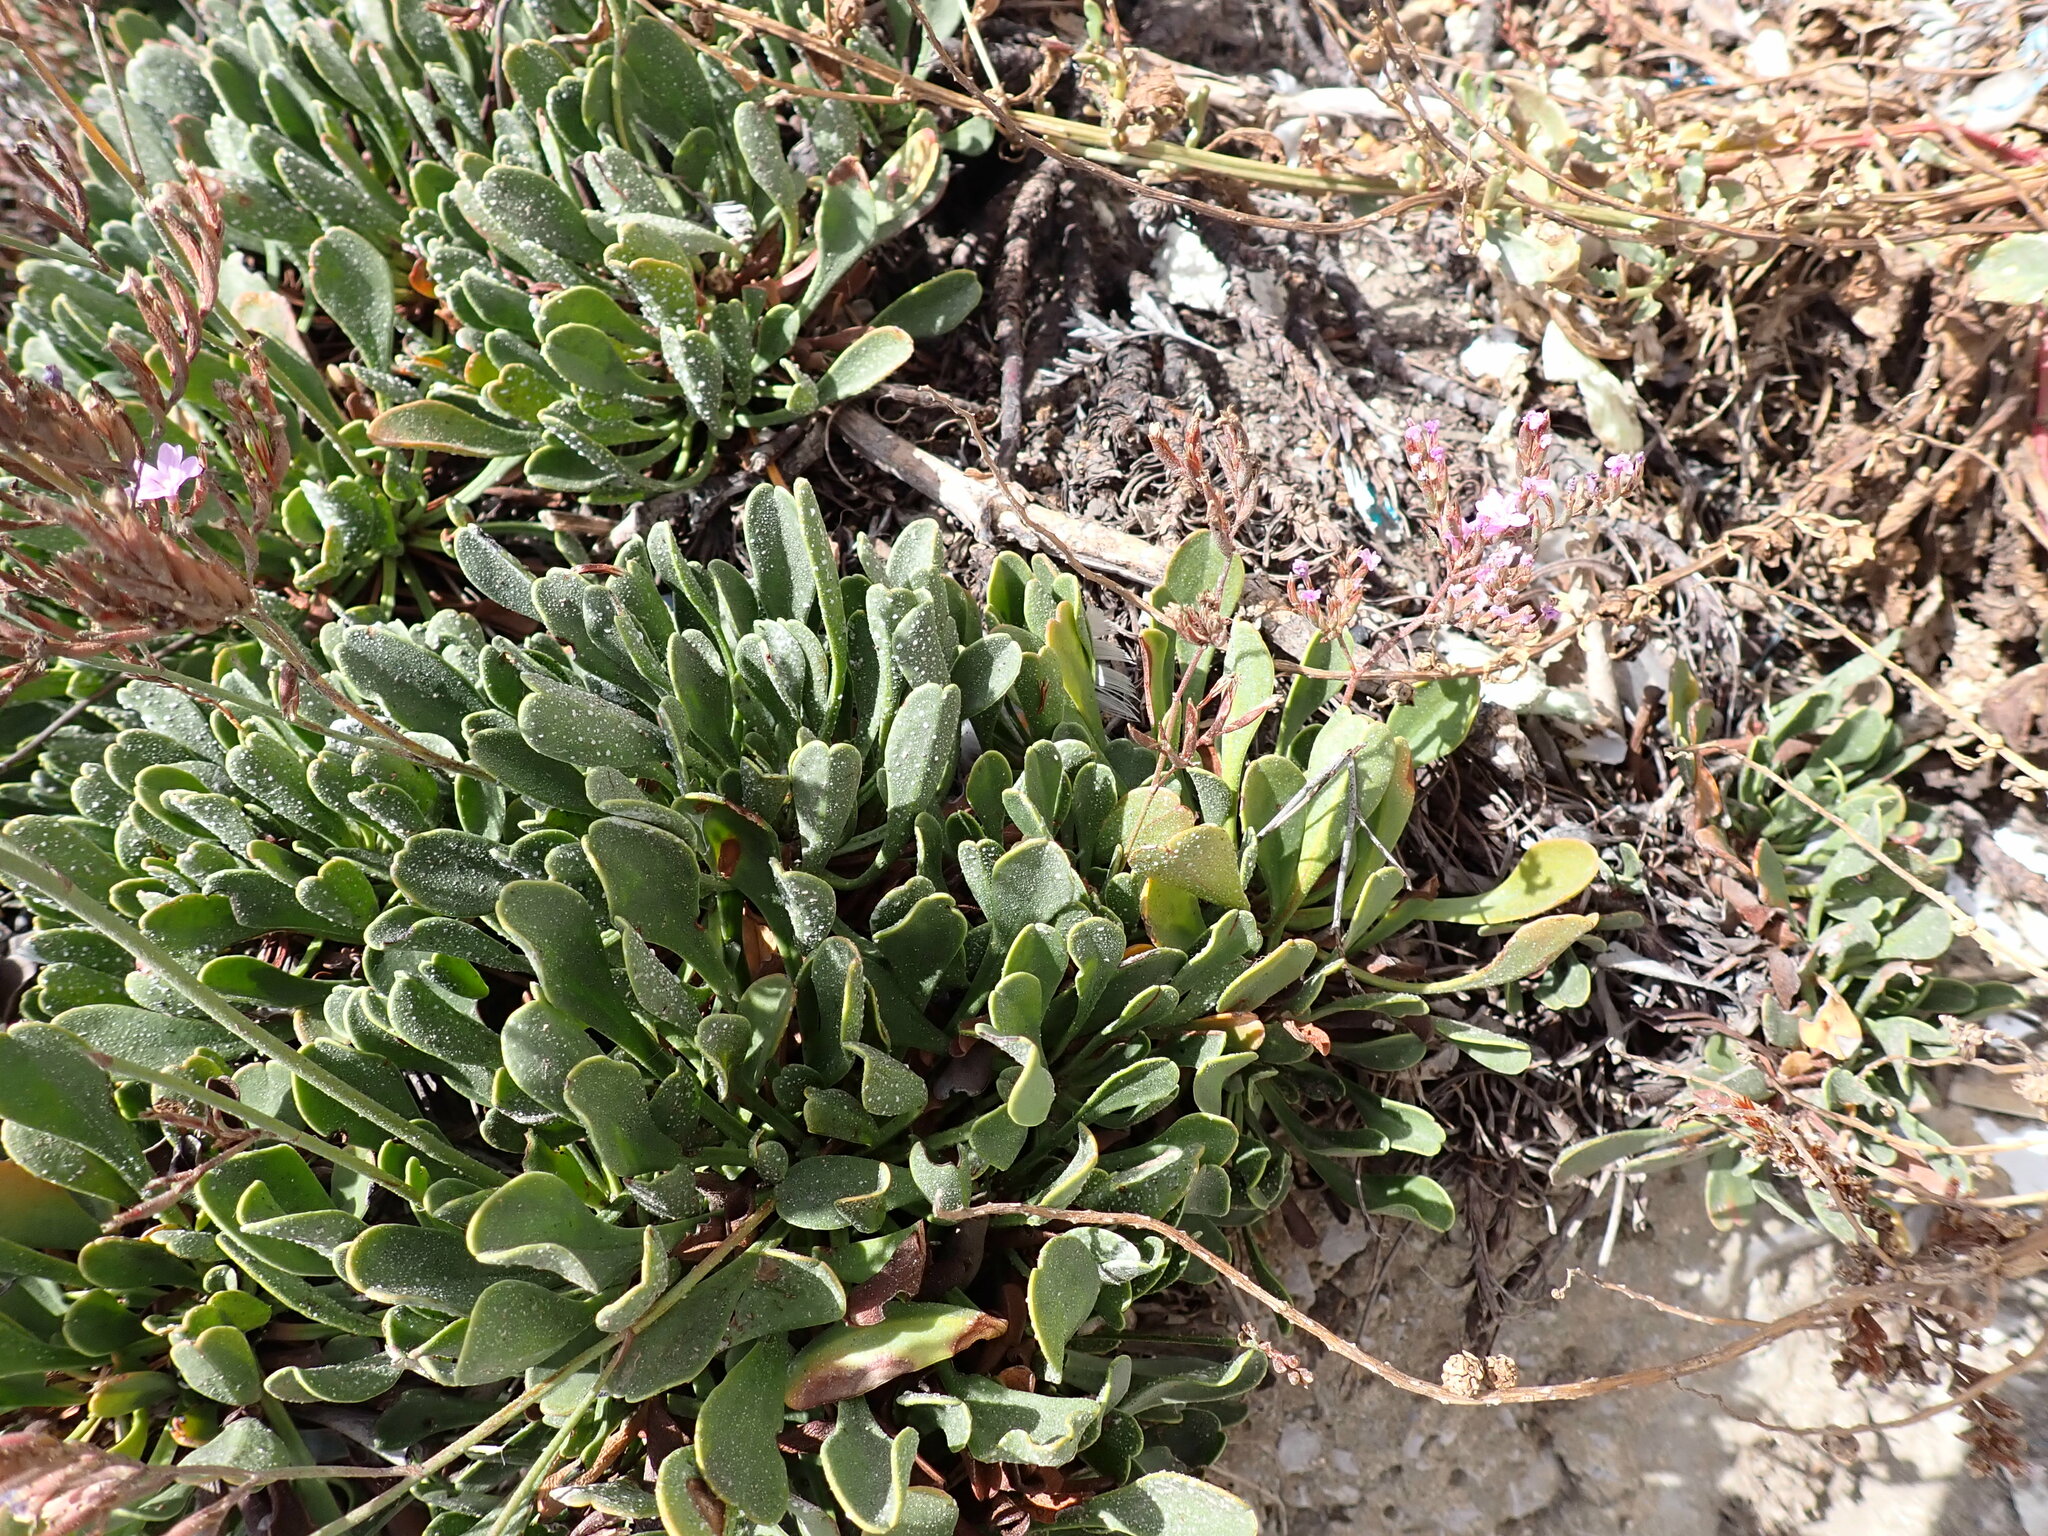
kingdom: Plantae
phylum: Tracheophyta
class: Magnoliopsida
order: Caryophyllales
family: Plumbaginaceae
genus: Limonium
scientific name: Limonium emarginatum
